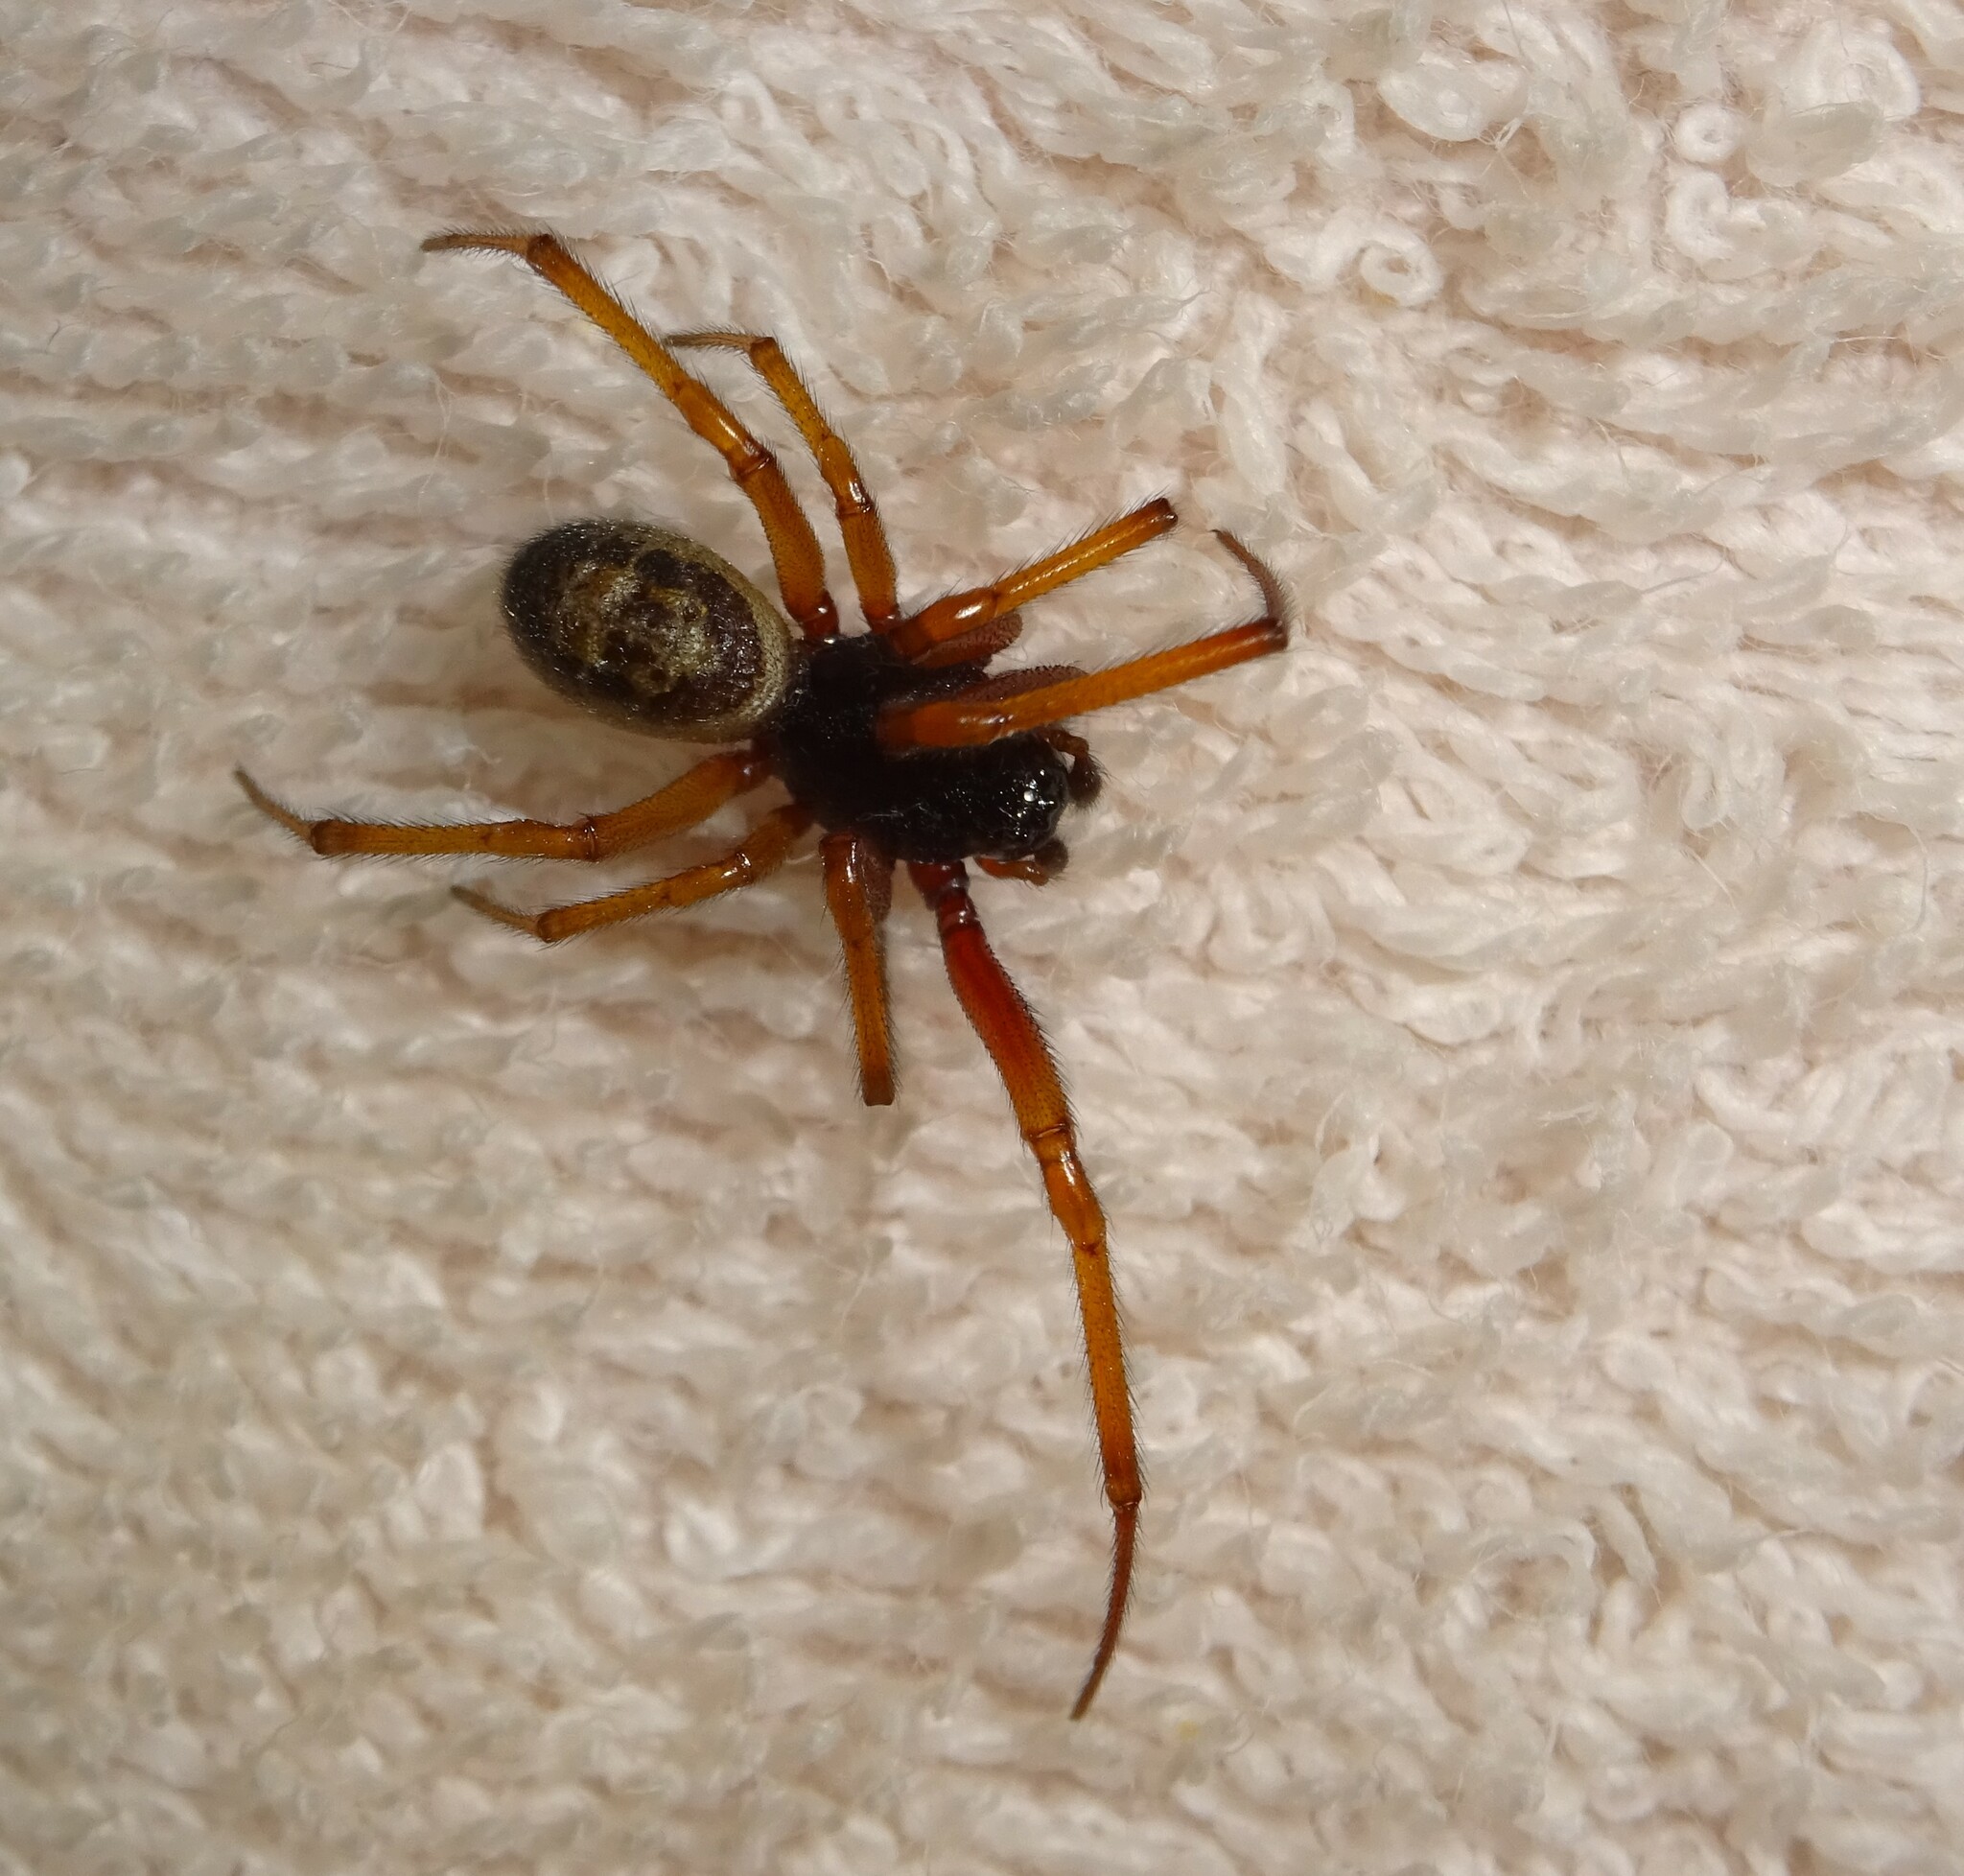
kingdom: Animalia
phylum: Arthropoda
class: Arachnida
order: Araneae
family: Theridiidae
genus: Steatoda
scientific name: Steatoda nobilis
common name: Cobweb weaver
